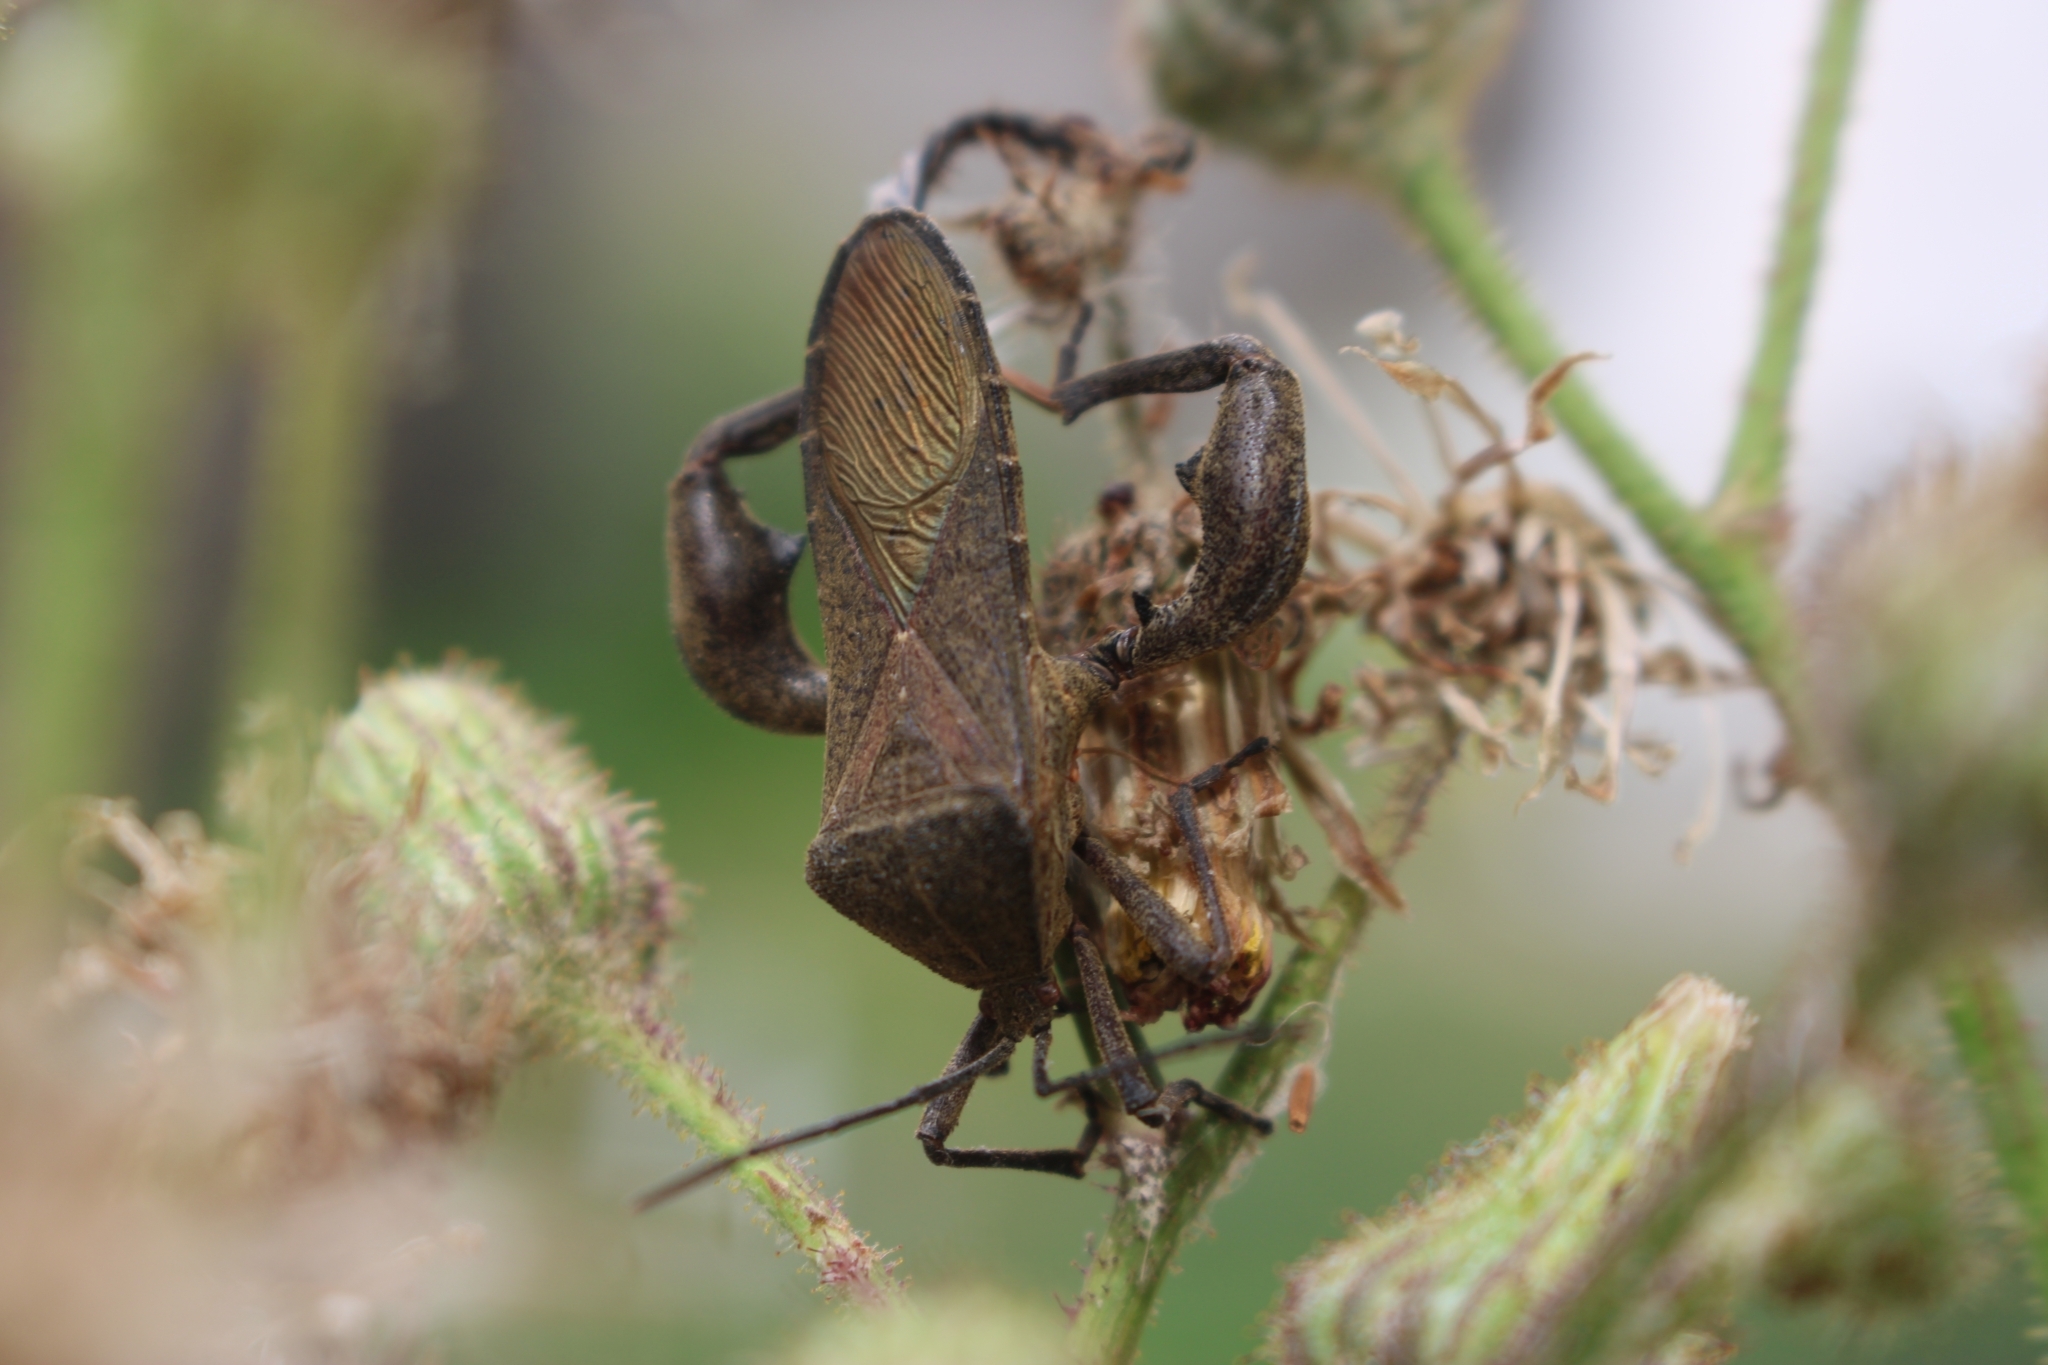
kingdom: Animalia
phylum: Arthropoda
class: Insecta
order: Hemiptera
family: Coreidae
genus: Anoplocnemis
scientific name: Anoplocnemis phasianus
